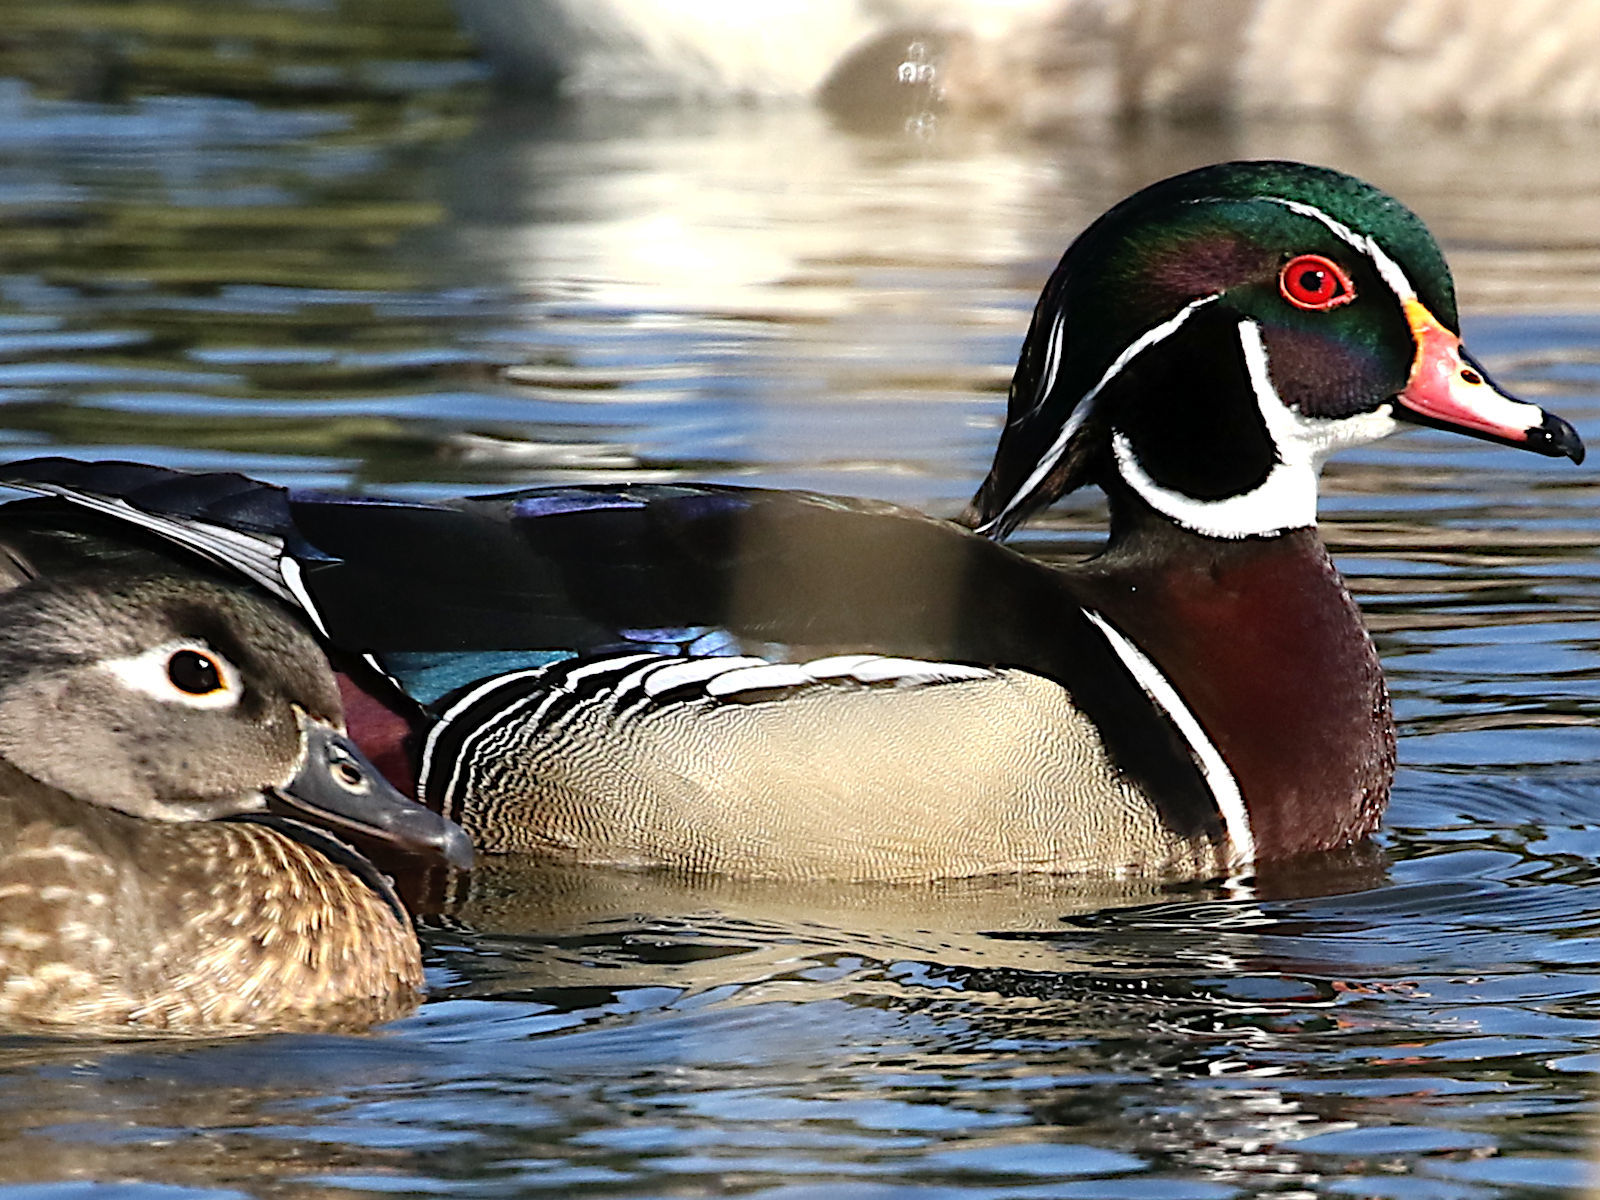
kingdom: Animalia
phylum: Chordata
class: Aves
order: Anseriformes
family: Anatidae
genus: Aix
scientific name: Aix sponsa
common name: Wood duck
